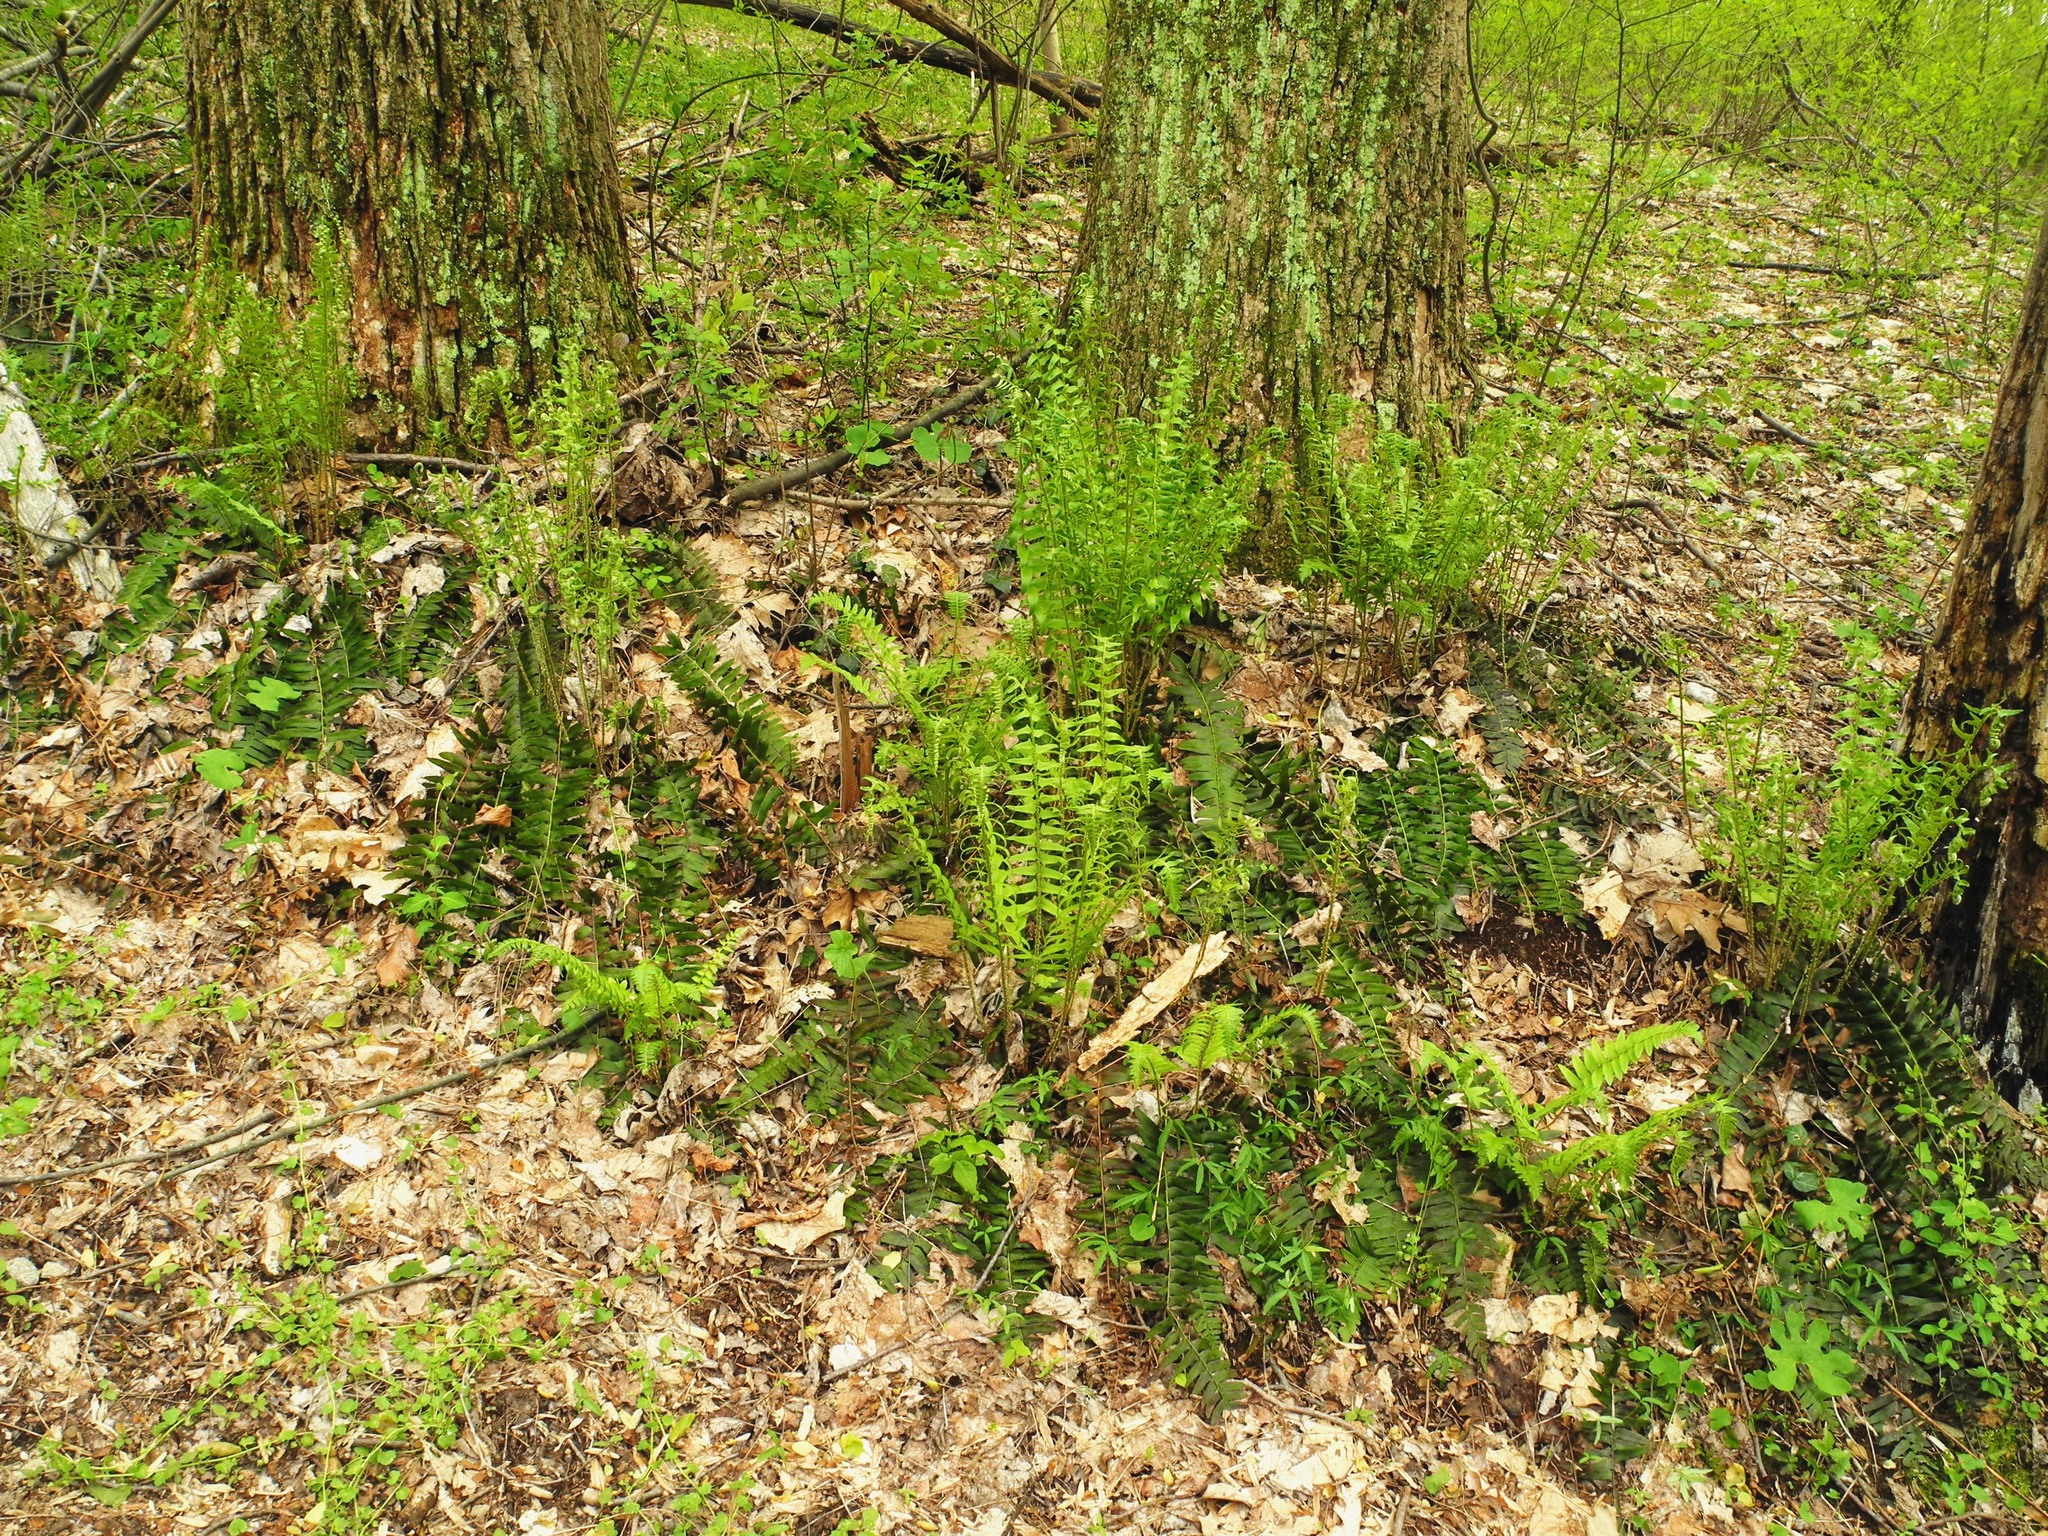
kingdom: Plantae
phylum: Tracheophyta
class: Polypodiopsida
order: Polypodiales
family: Dryopteridaceae
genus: Polystichum
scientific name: Polystichum acrostichoides
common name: Christmas fern
